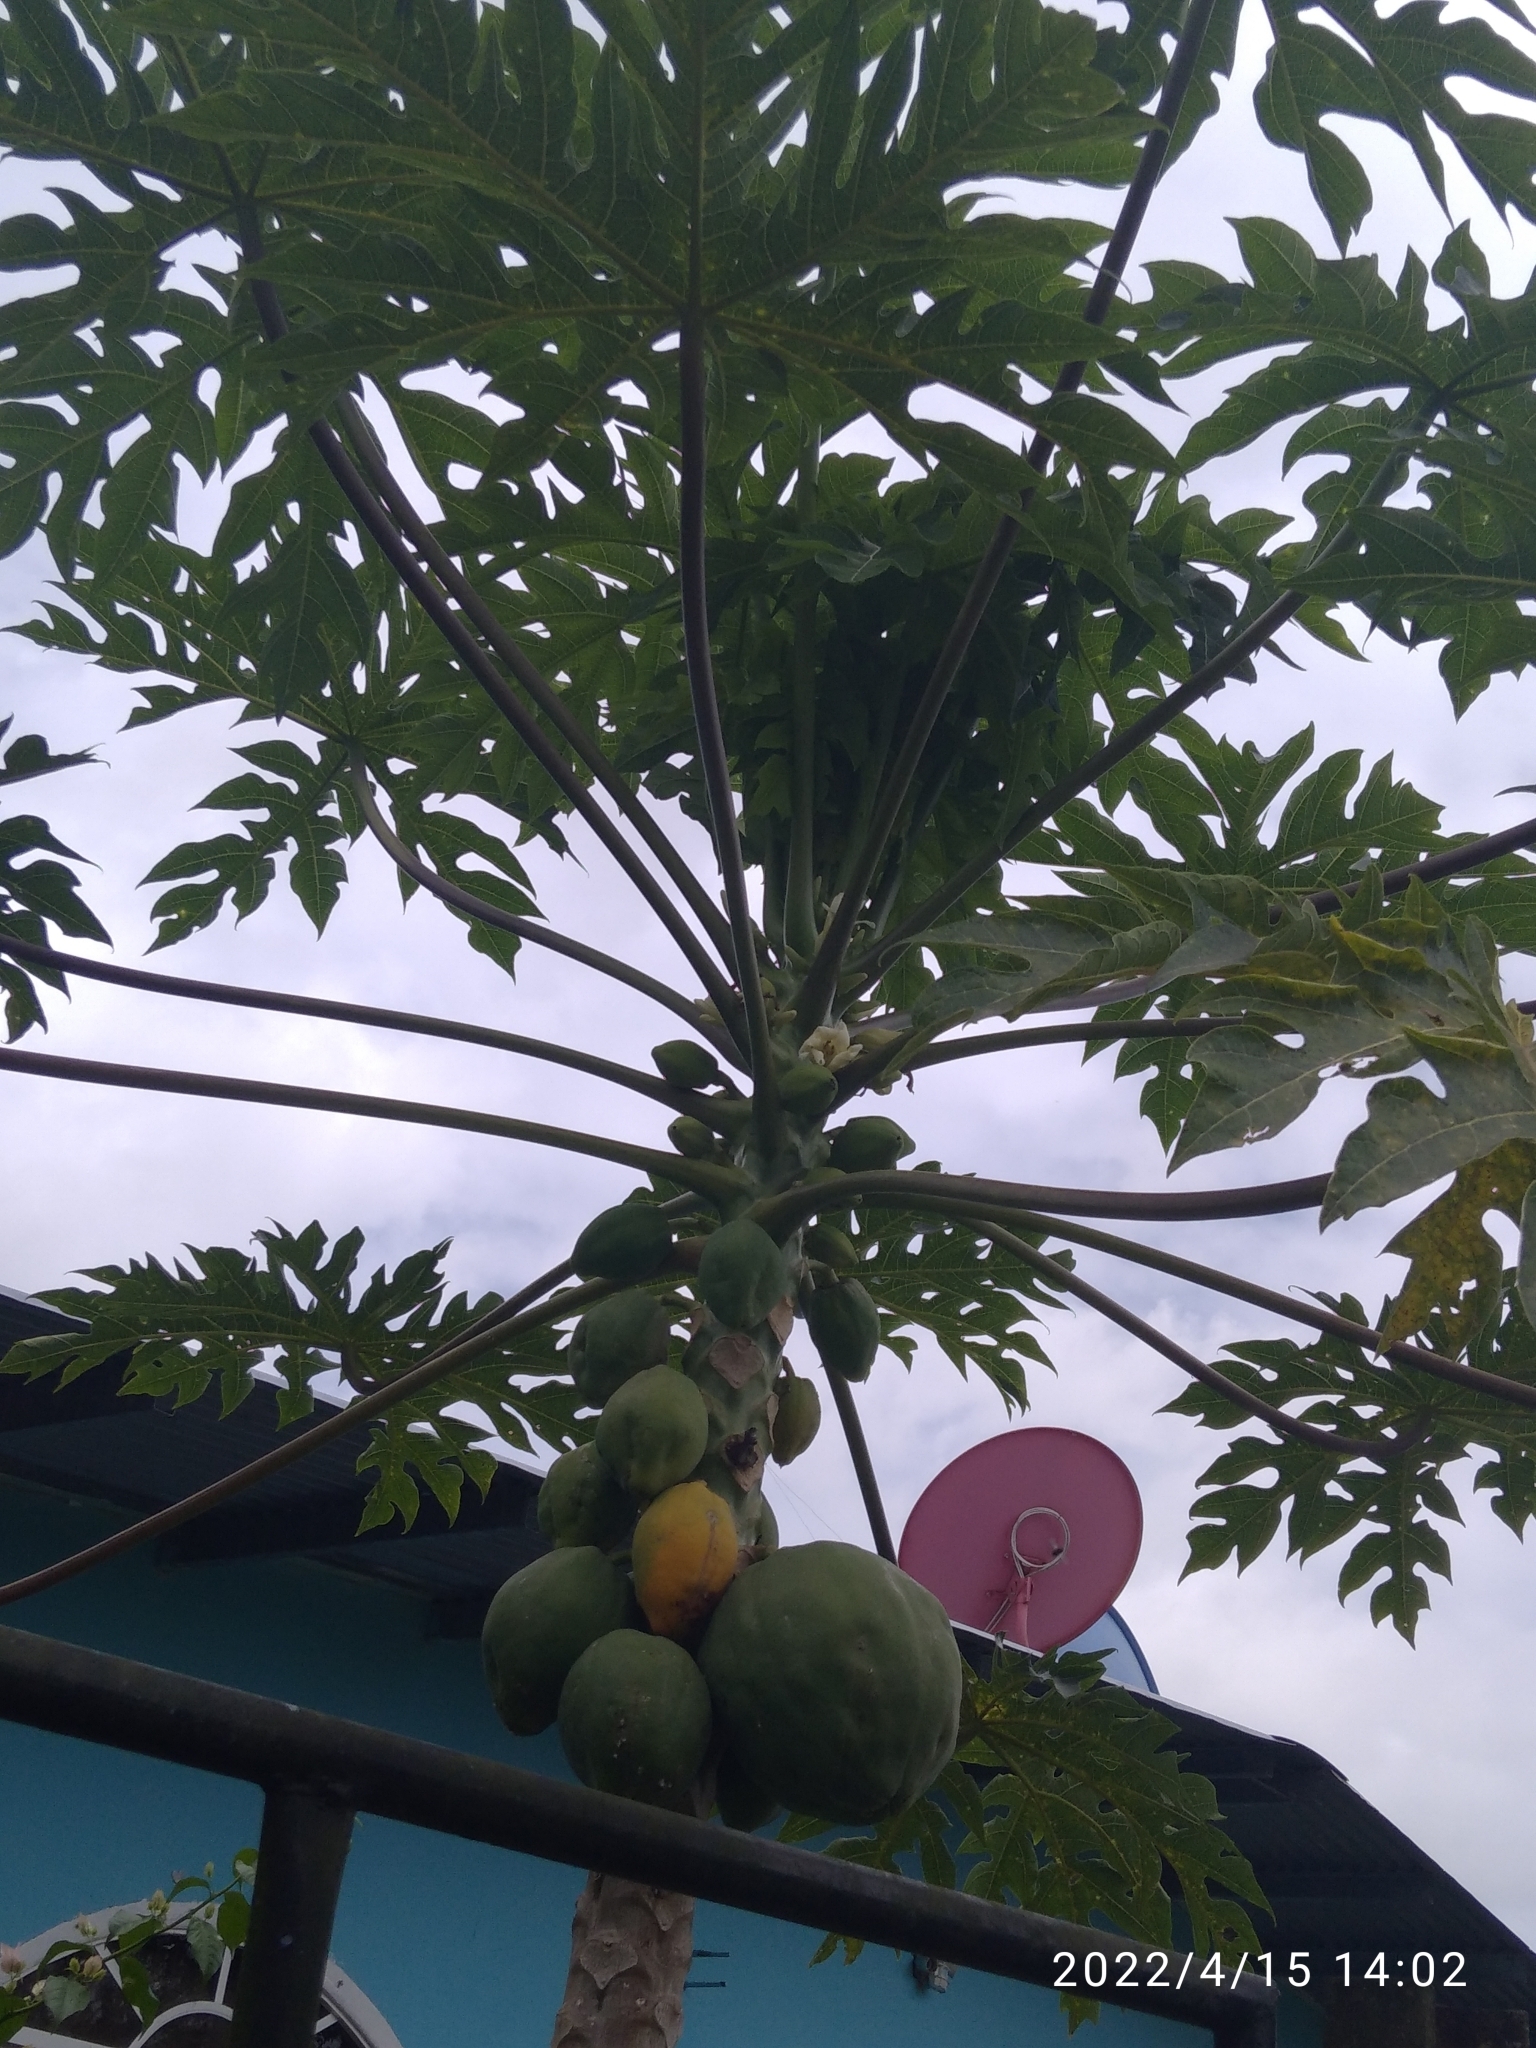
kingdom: Plantae
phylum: Tracheophyta
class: Magnoliopsida
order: Brassicales
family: Caricaceae
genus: Carica
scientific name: Carica papaya
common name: Papaya
